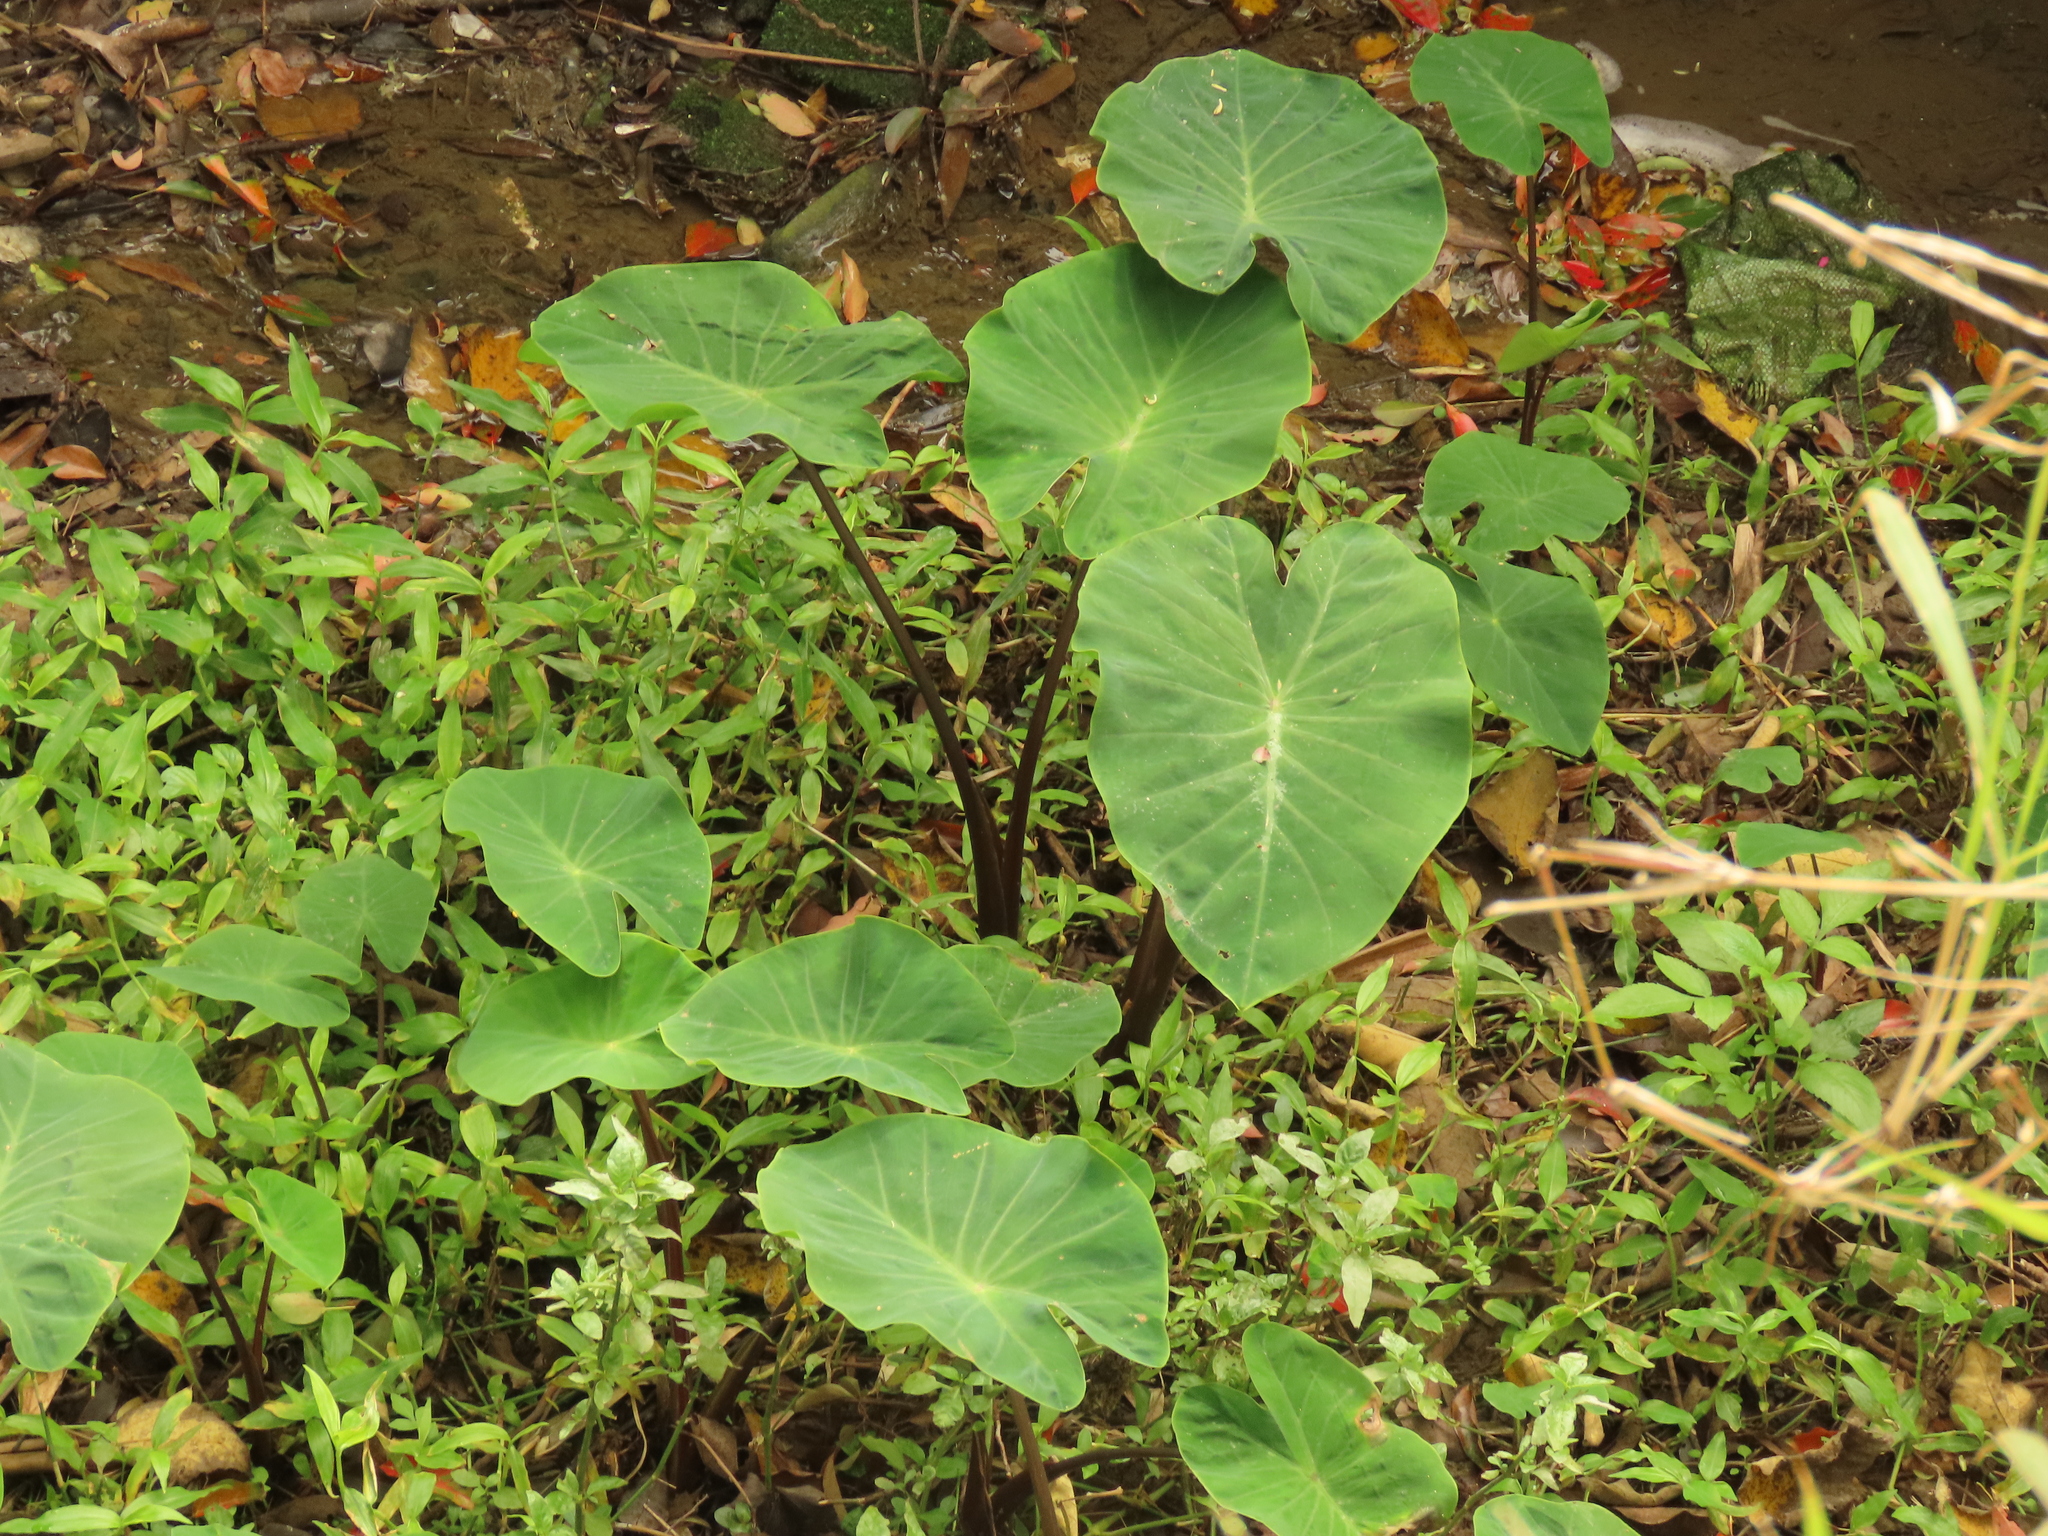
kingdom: Plantae
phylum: Tracheophyta
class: Liliopsida
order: Alismatales
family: Araceae
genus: Colocasia
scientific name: Colocasia esculenta
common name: Taro
